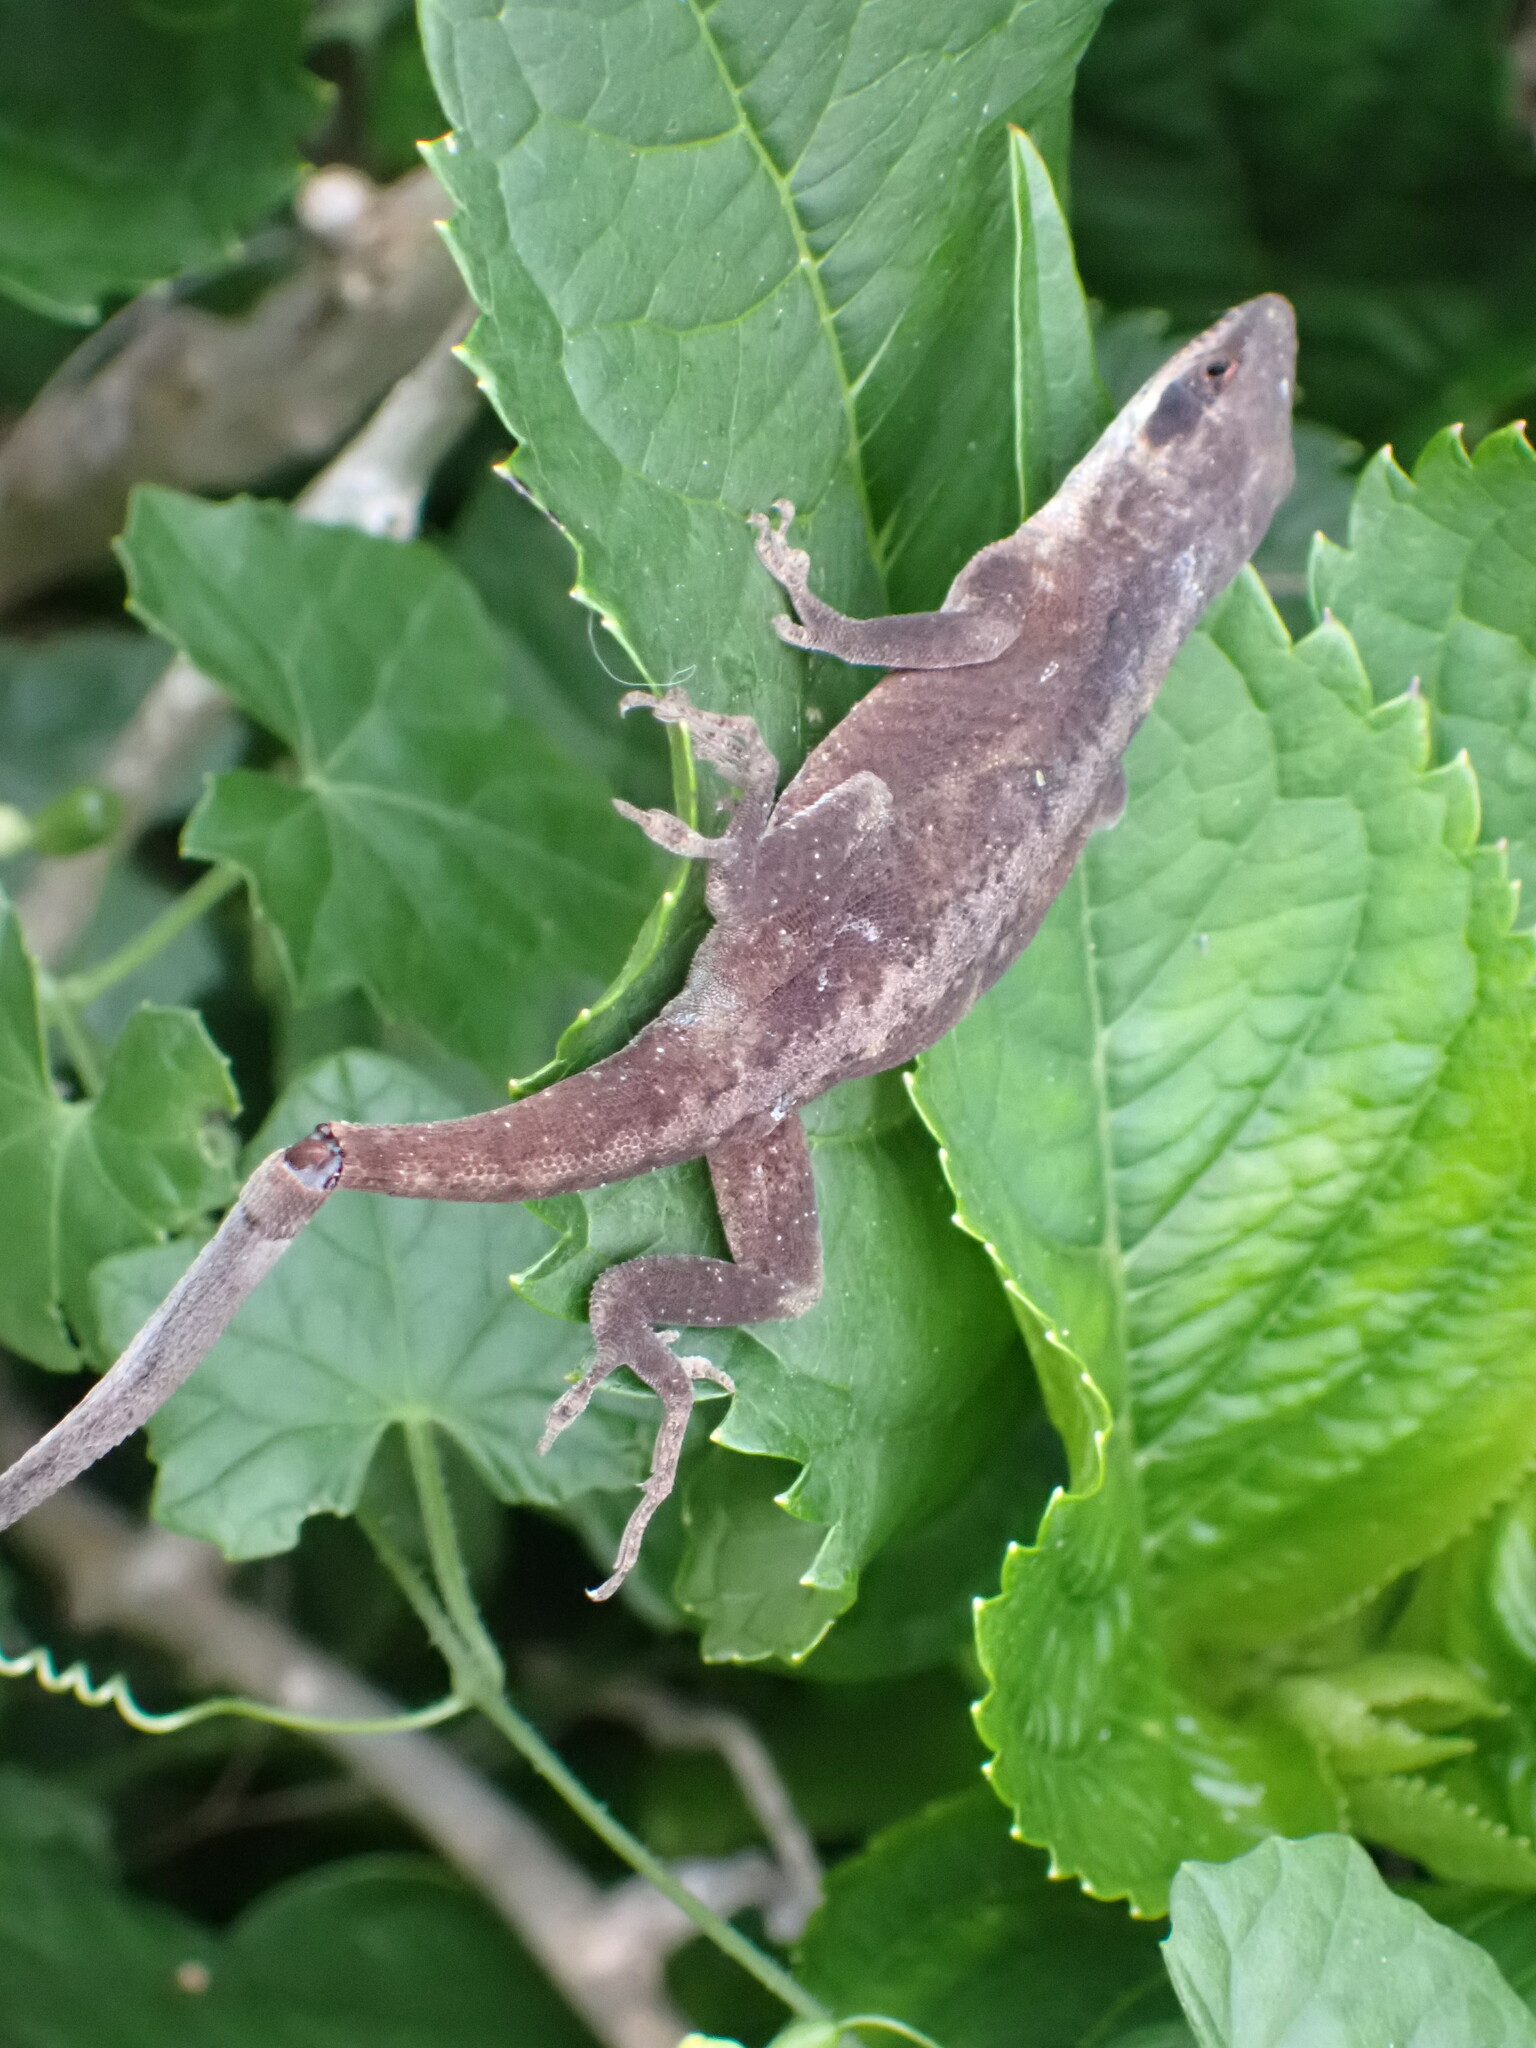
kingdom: Animalia
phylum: Chordata
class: Squamata
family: Dactyloidae
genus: Anolis
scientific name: Anolis carolinensis
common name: Green anole
